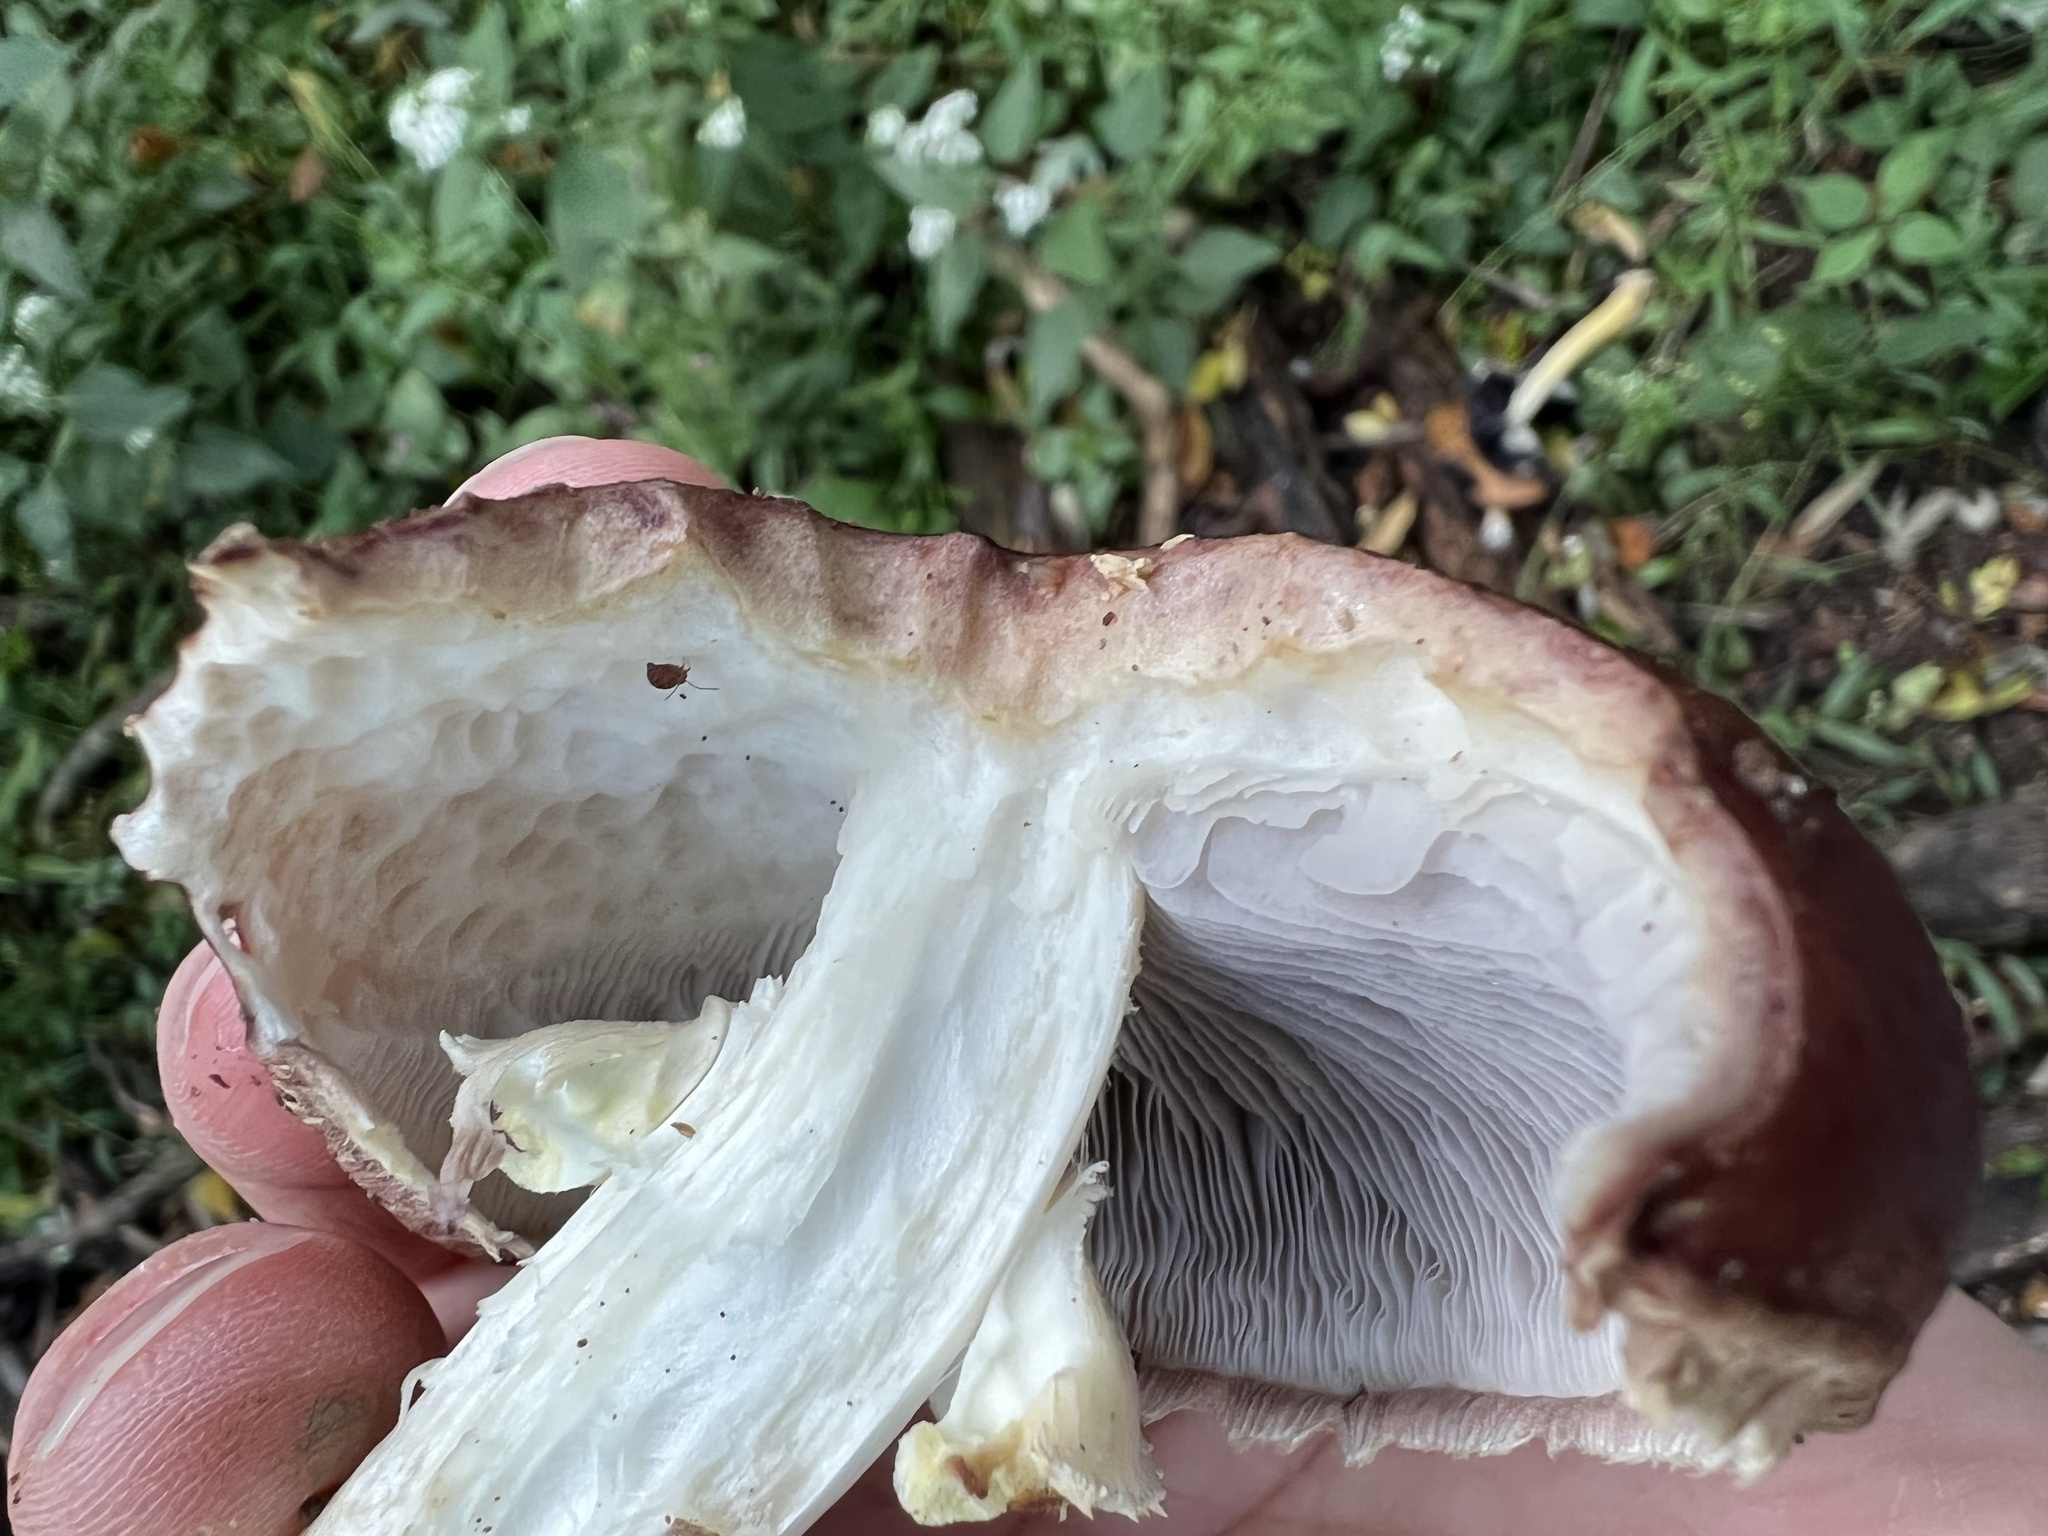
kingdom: Fungi
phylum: Basidiomycota
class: Agaricomycetes
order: Agaricales
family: Strophariaceae
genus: Stropharia
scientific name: Stropharia rugosoannulata
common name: Wine roundhead
